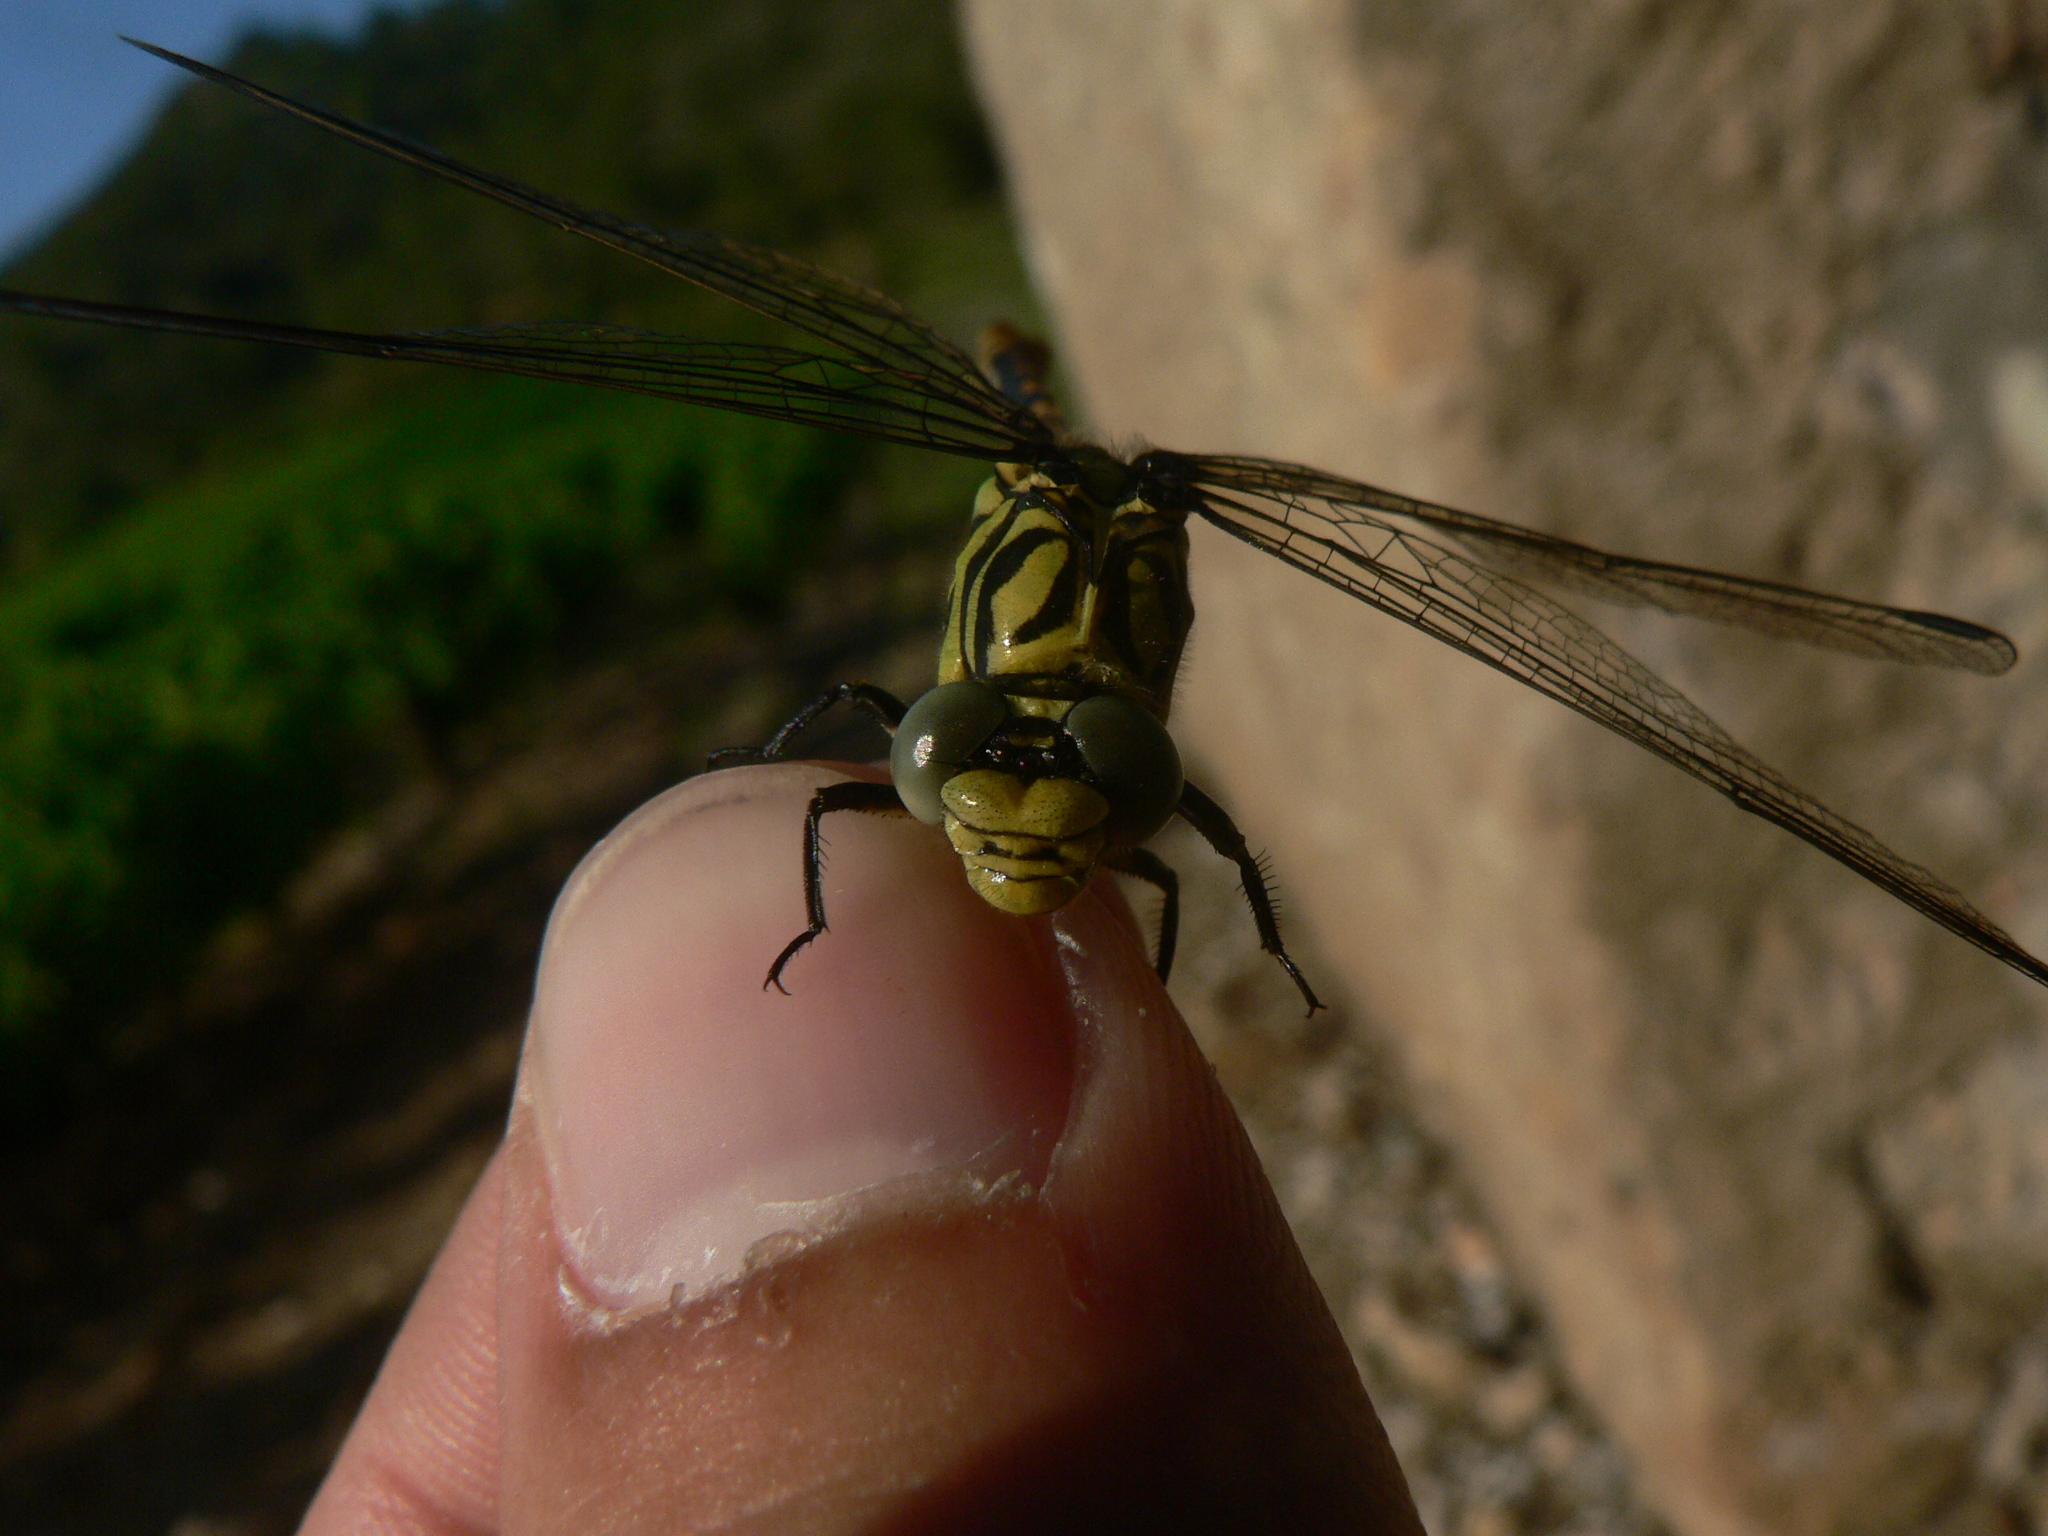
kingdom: Animalia
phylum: Arthropoda
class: Insecta
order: Odonata
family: Gomphidae
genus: Onychogomphus
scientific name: Onychogomphus forcipatus
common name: Small pincertail
